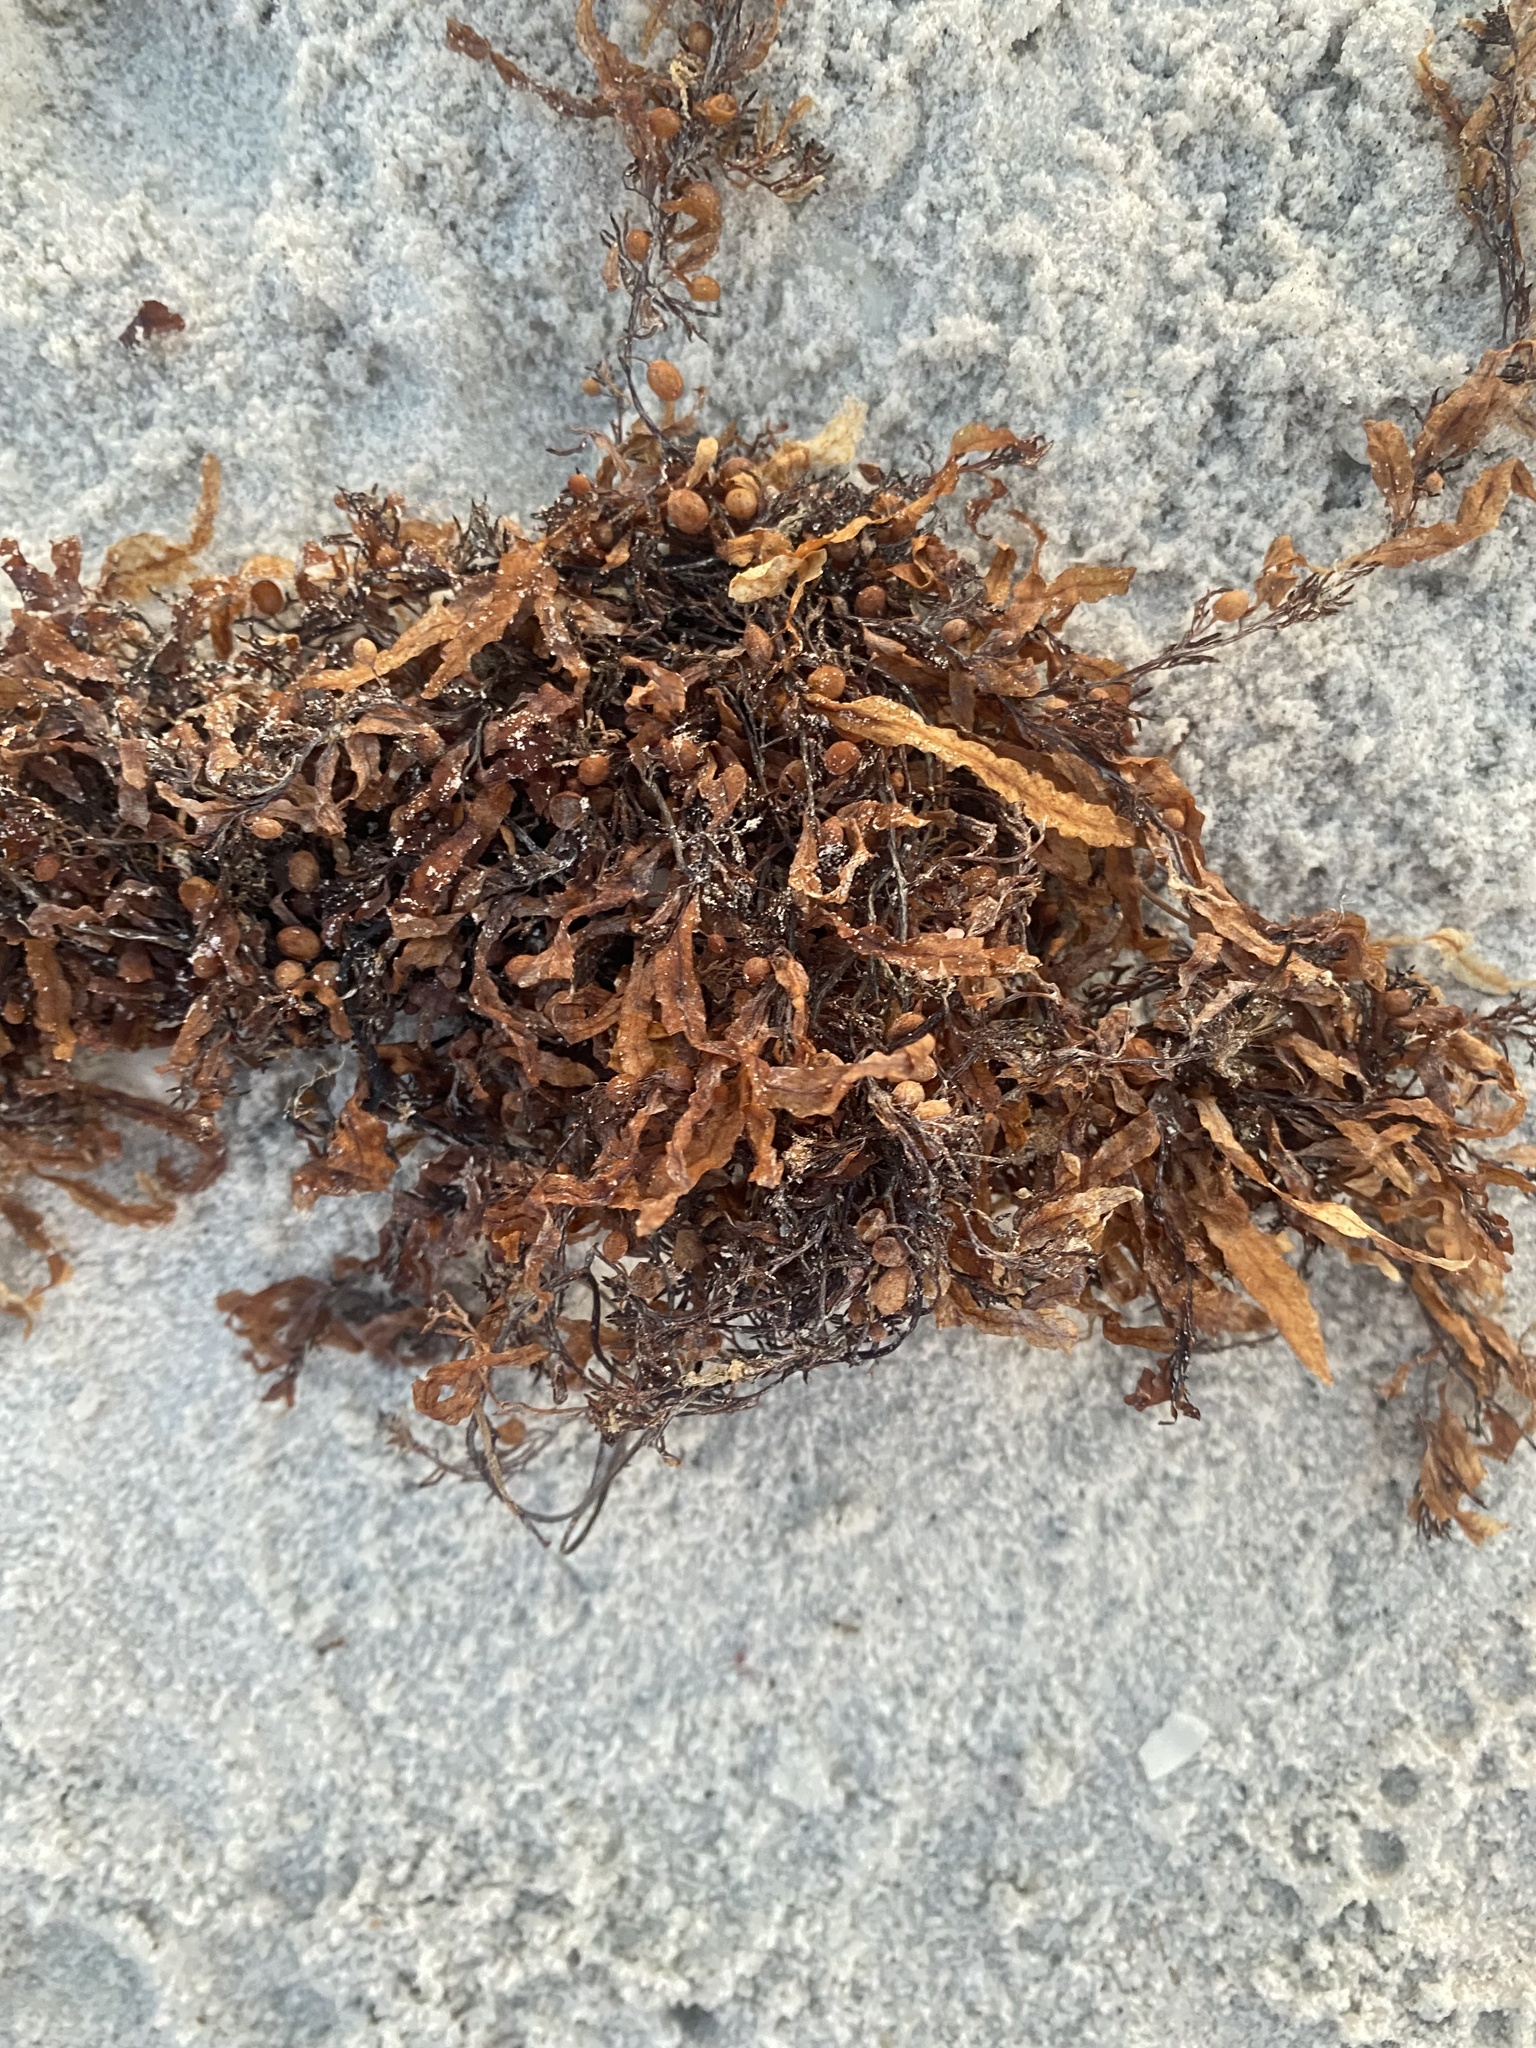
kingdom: Chromista
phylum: Ochrophyta
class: Phaeophyceae
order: Fucales
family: Sargassaceae
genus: Sargassum
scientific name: Sargassum fluitans
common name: Sargassum seaweed
